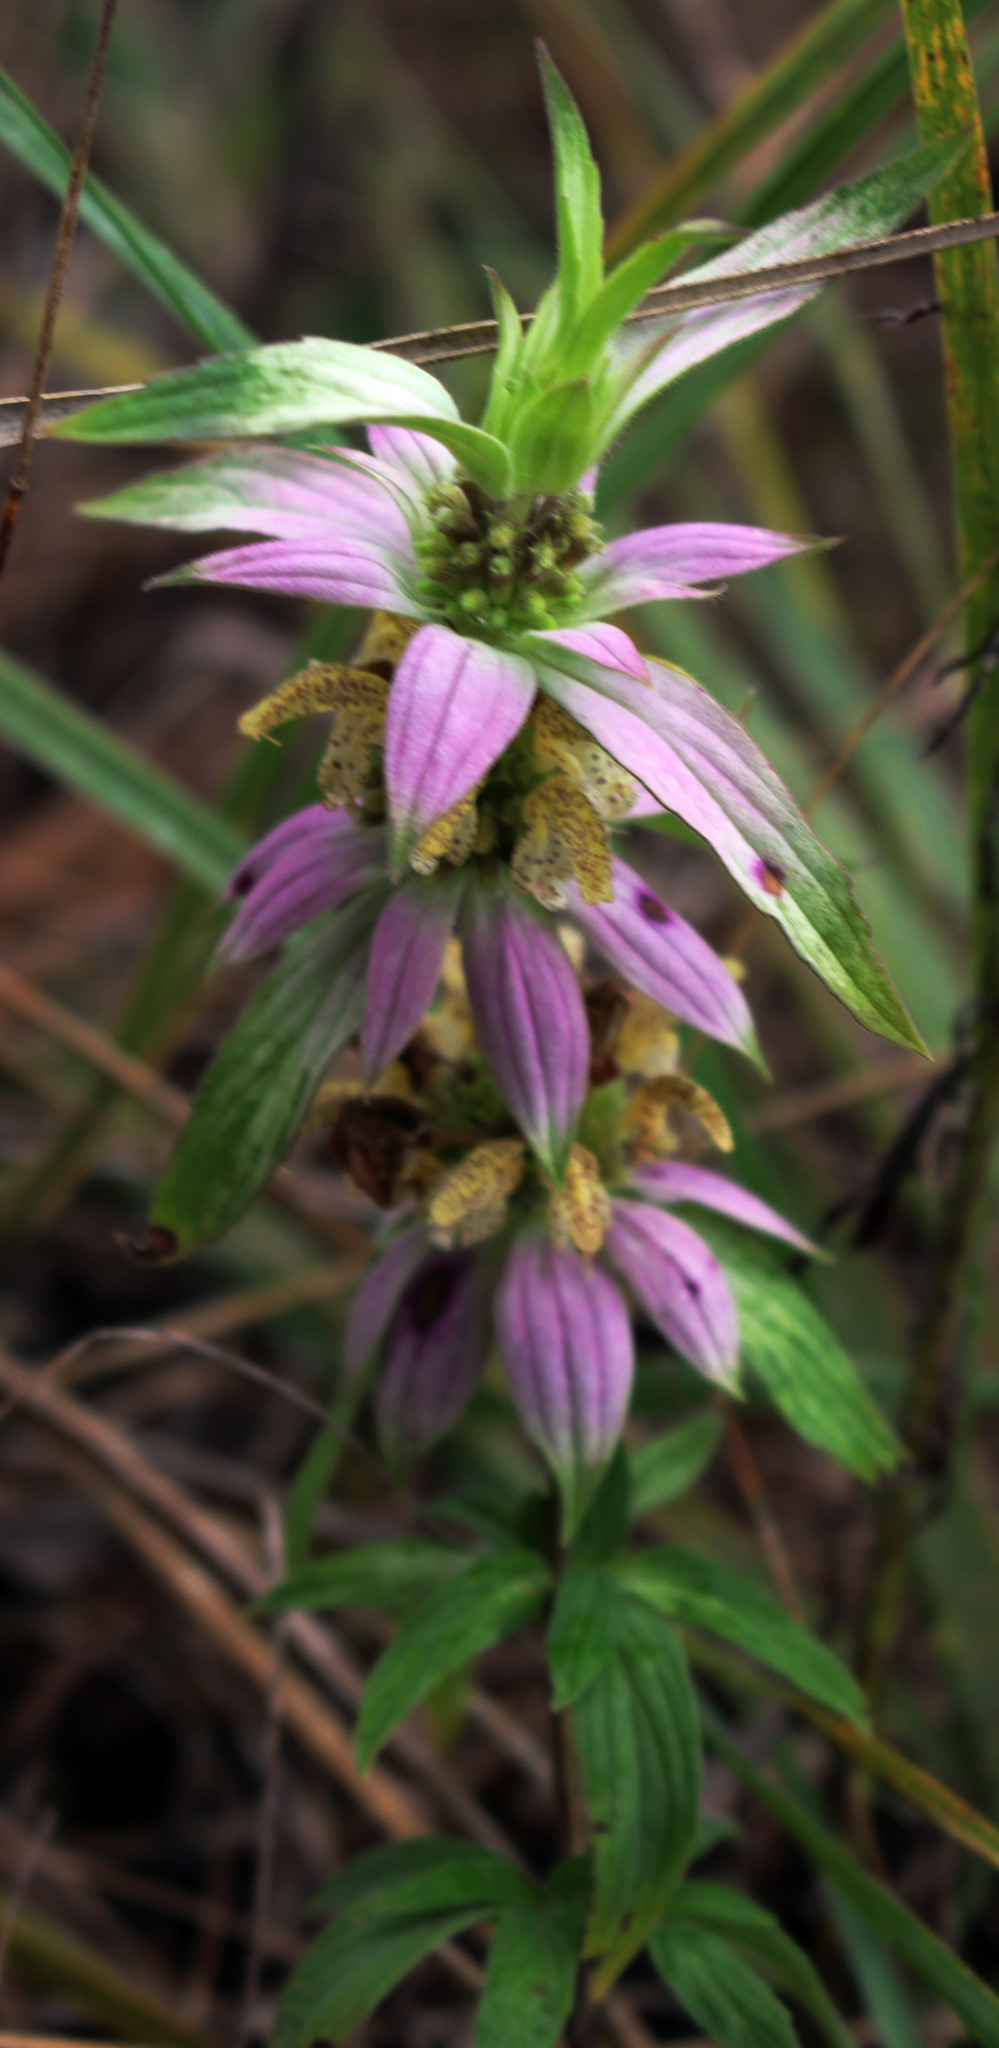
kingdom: Plantae
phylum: Tracheophyta
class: Magnoliopsida
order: Lamiales
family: Lamiaceae
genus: Monarda
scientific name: Monarda punctata
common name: Dotted monarda
